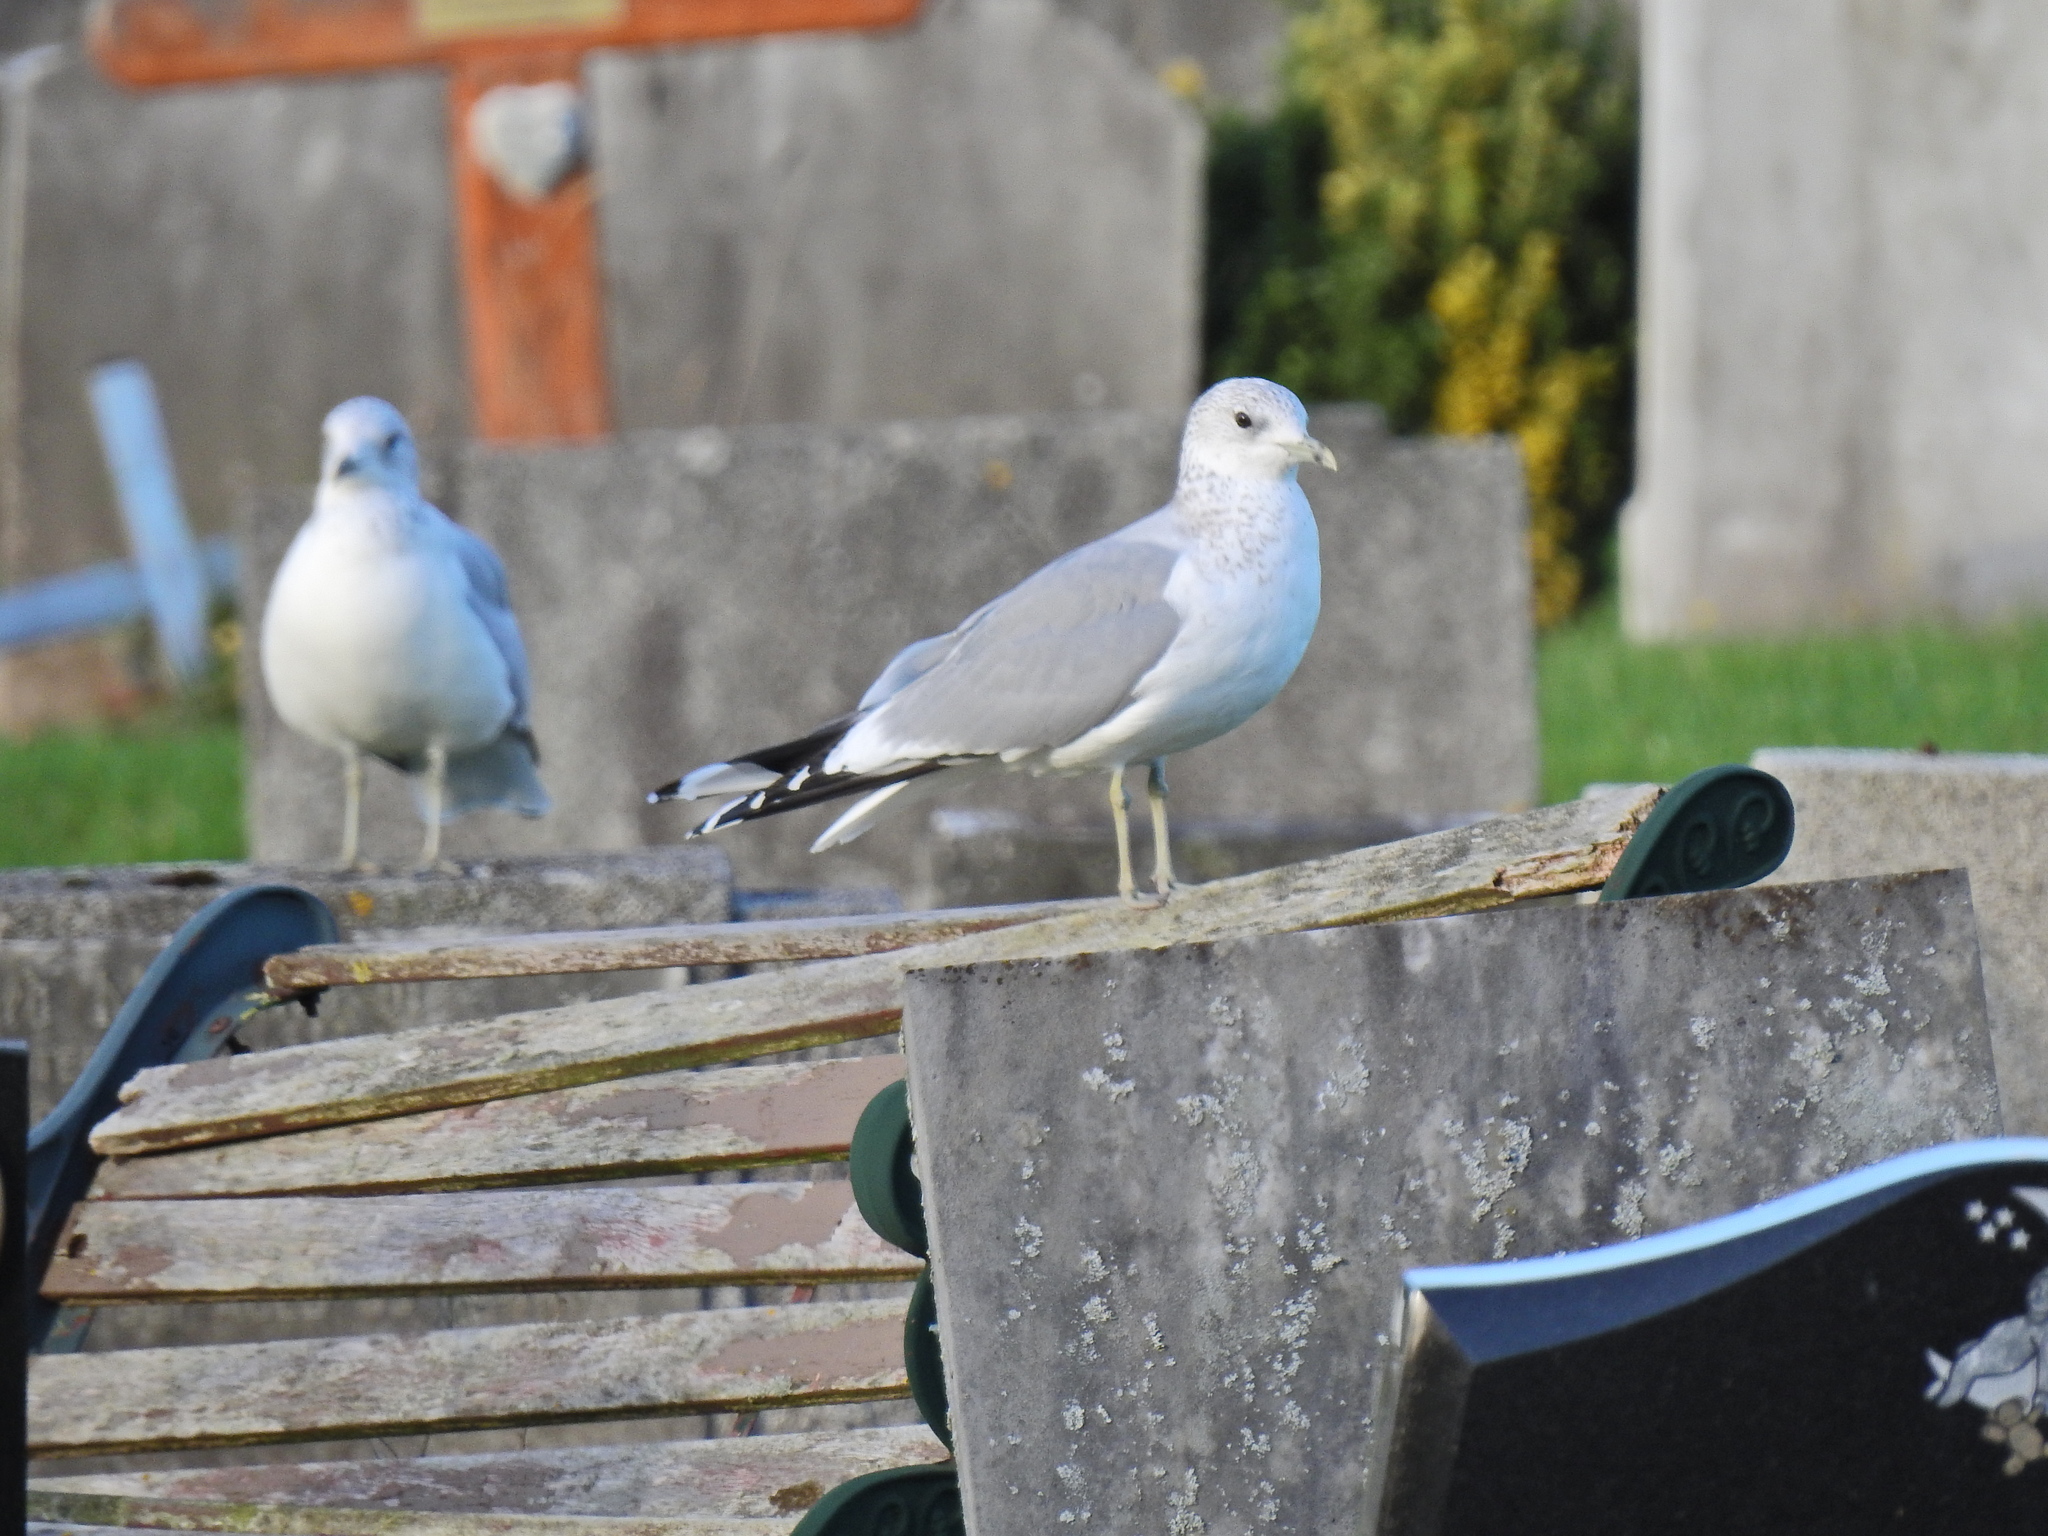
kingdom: Animalia
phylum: Chordata
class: Aves
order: Charadriiformes
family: Laridae
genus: Larus
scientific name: Larus canus
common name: Mew gull
